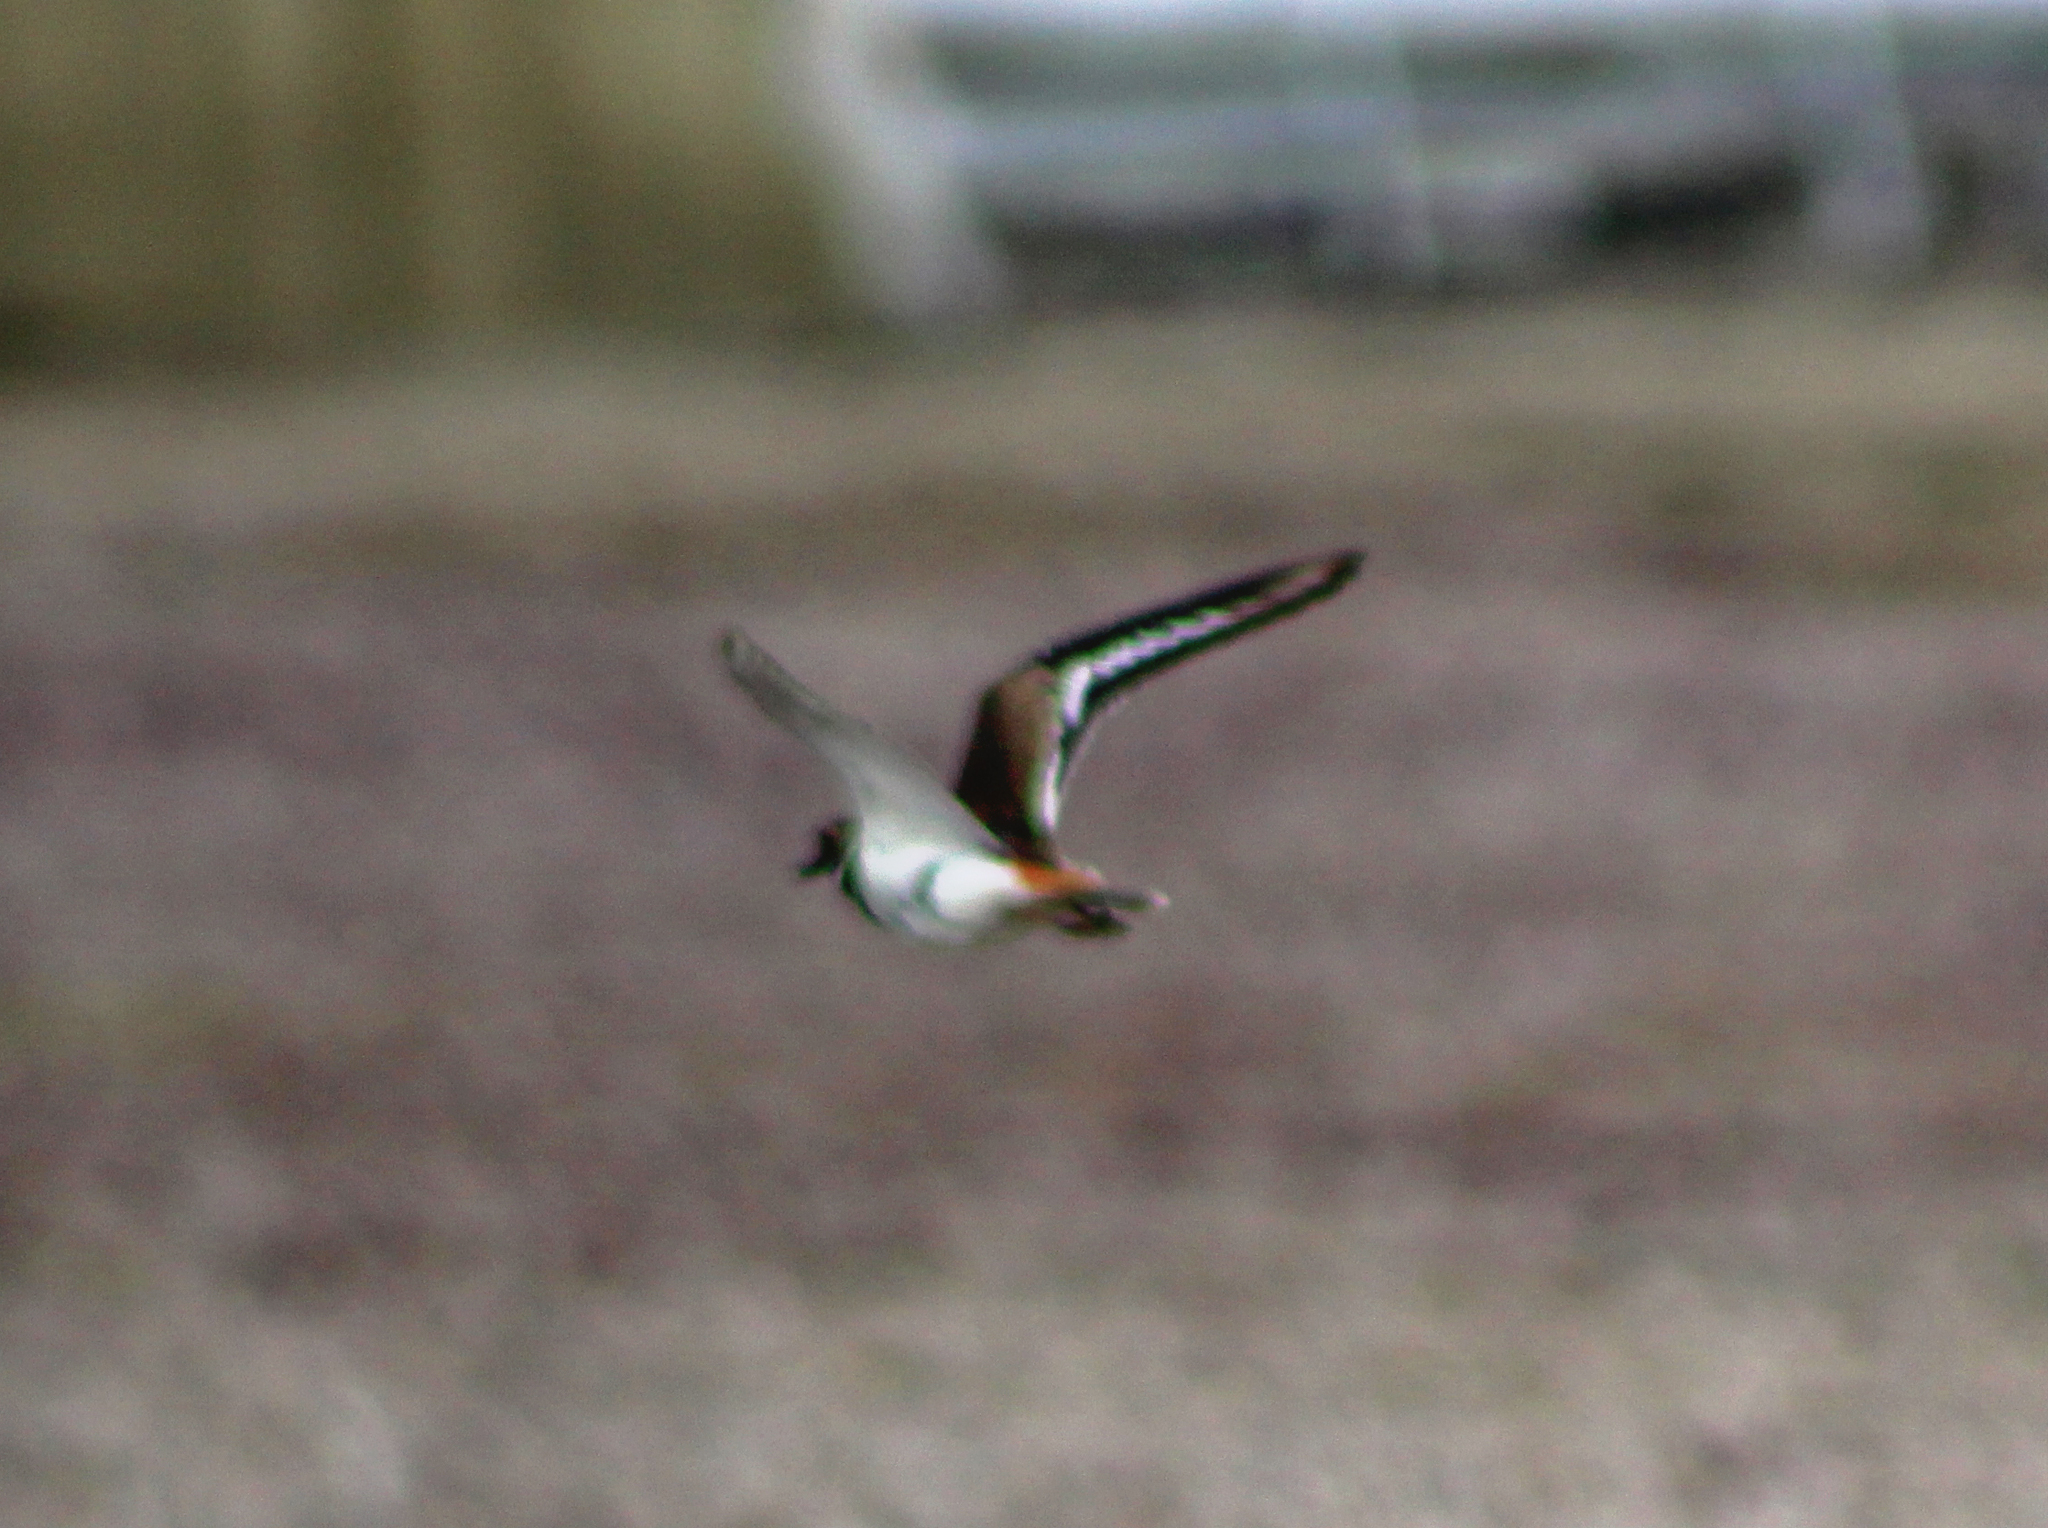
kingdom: Animalia
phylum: Chordata
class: Aves
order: Charadriiformes
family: Charadriidae
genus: Charadrius
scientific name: Charadrius vociferus
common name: Killdeer
